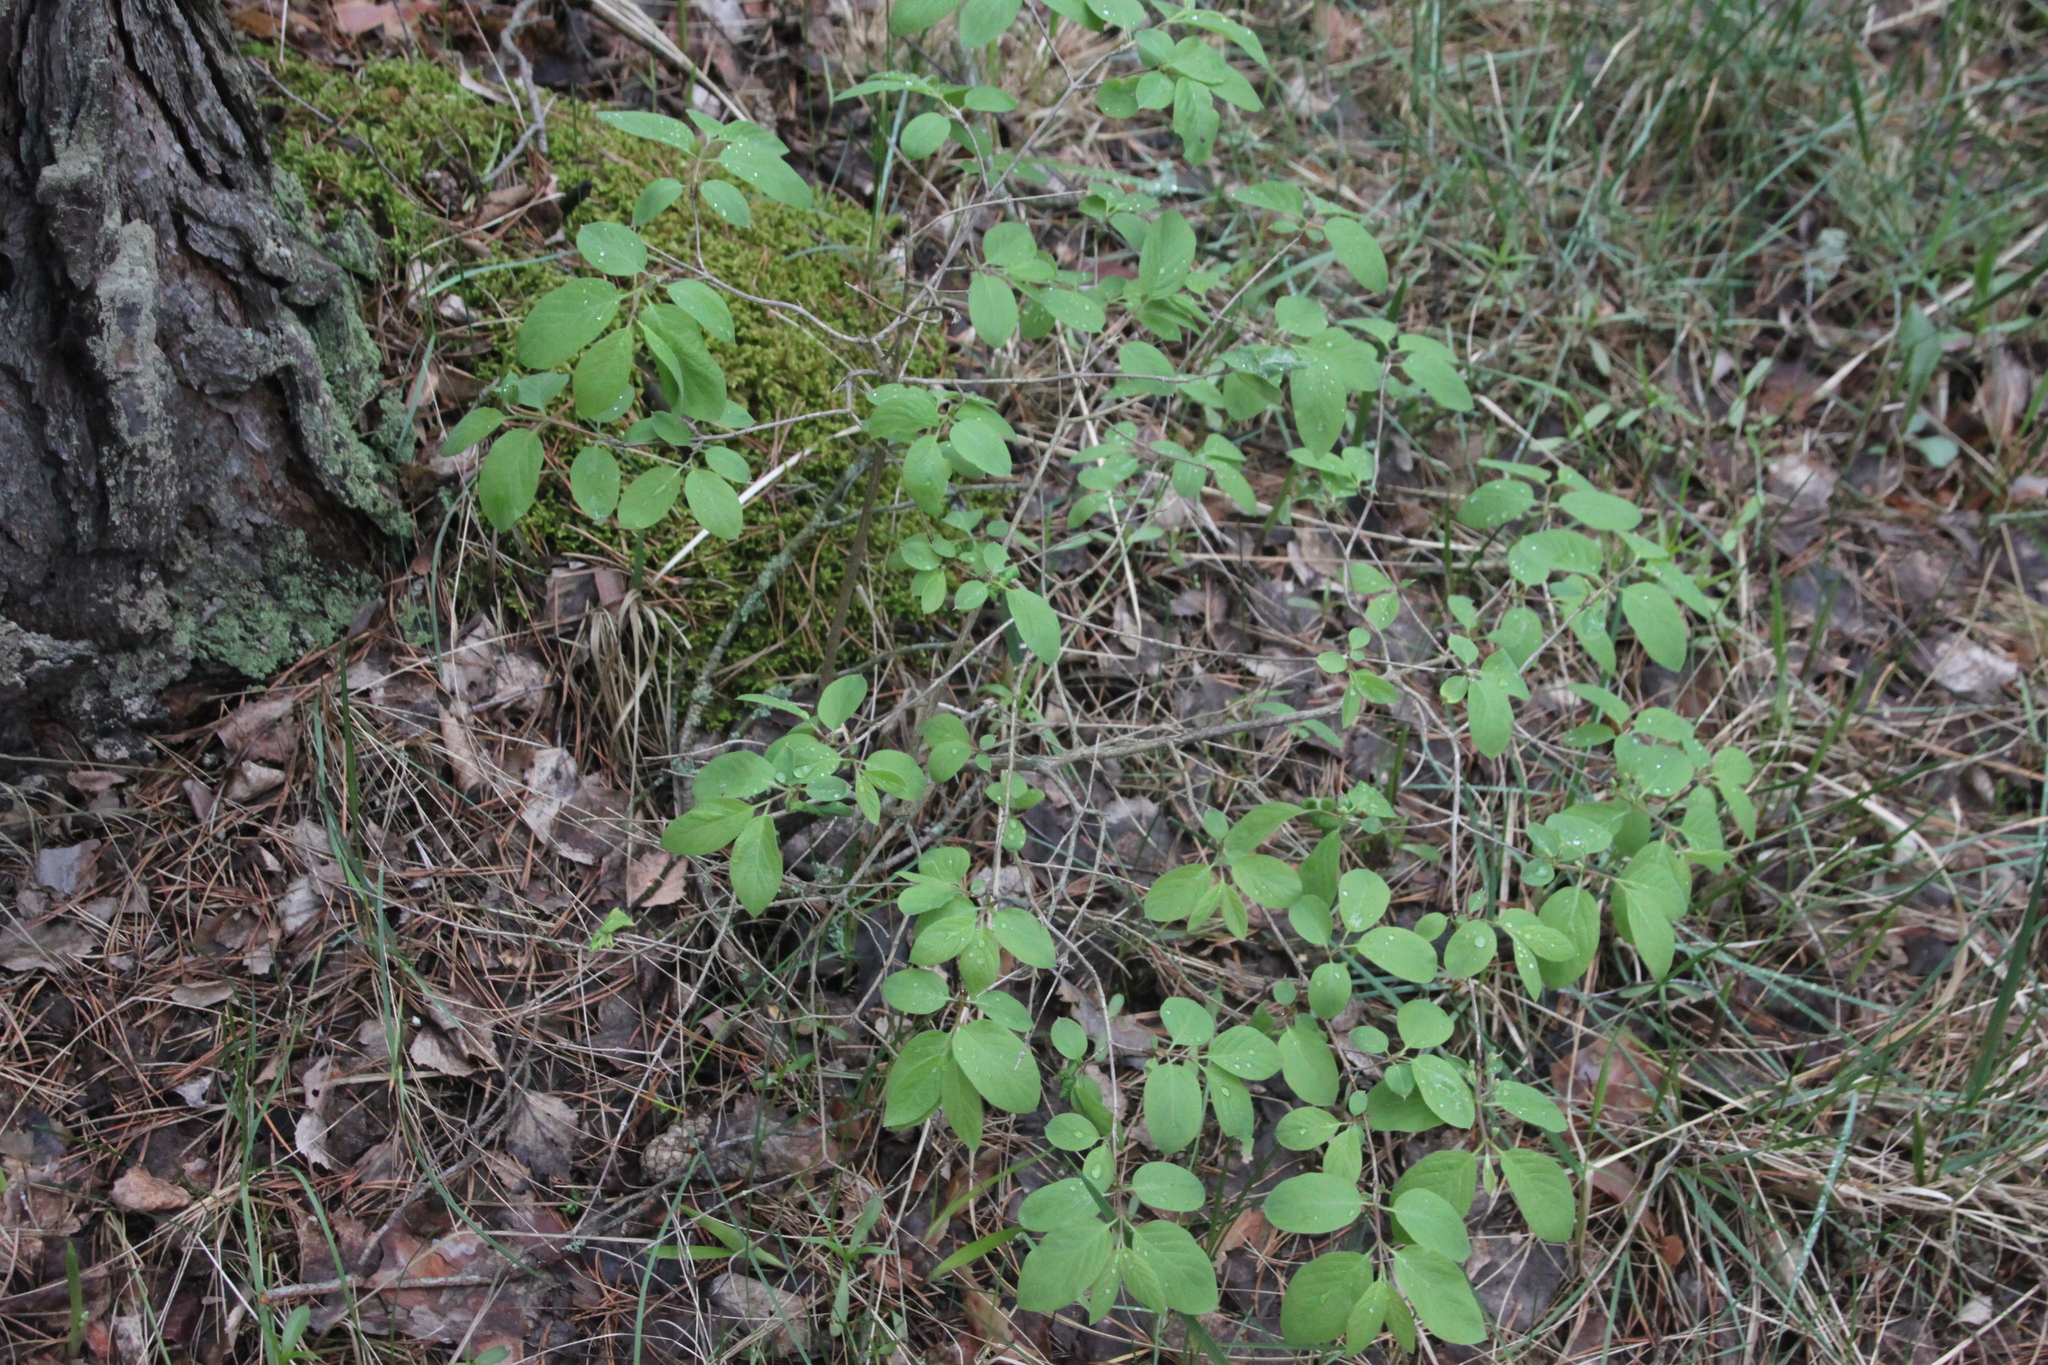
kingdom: Plantae
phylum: Tracheophyta
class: Magnoliopsida
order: Dipsacales
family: Caprifoliaceae
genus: Lonicera
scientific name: Lonicera xylosteum
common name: Fly honeysuckle
